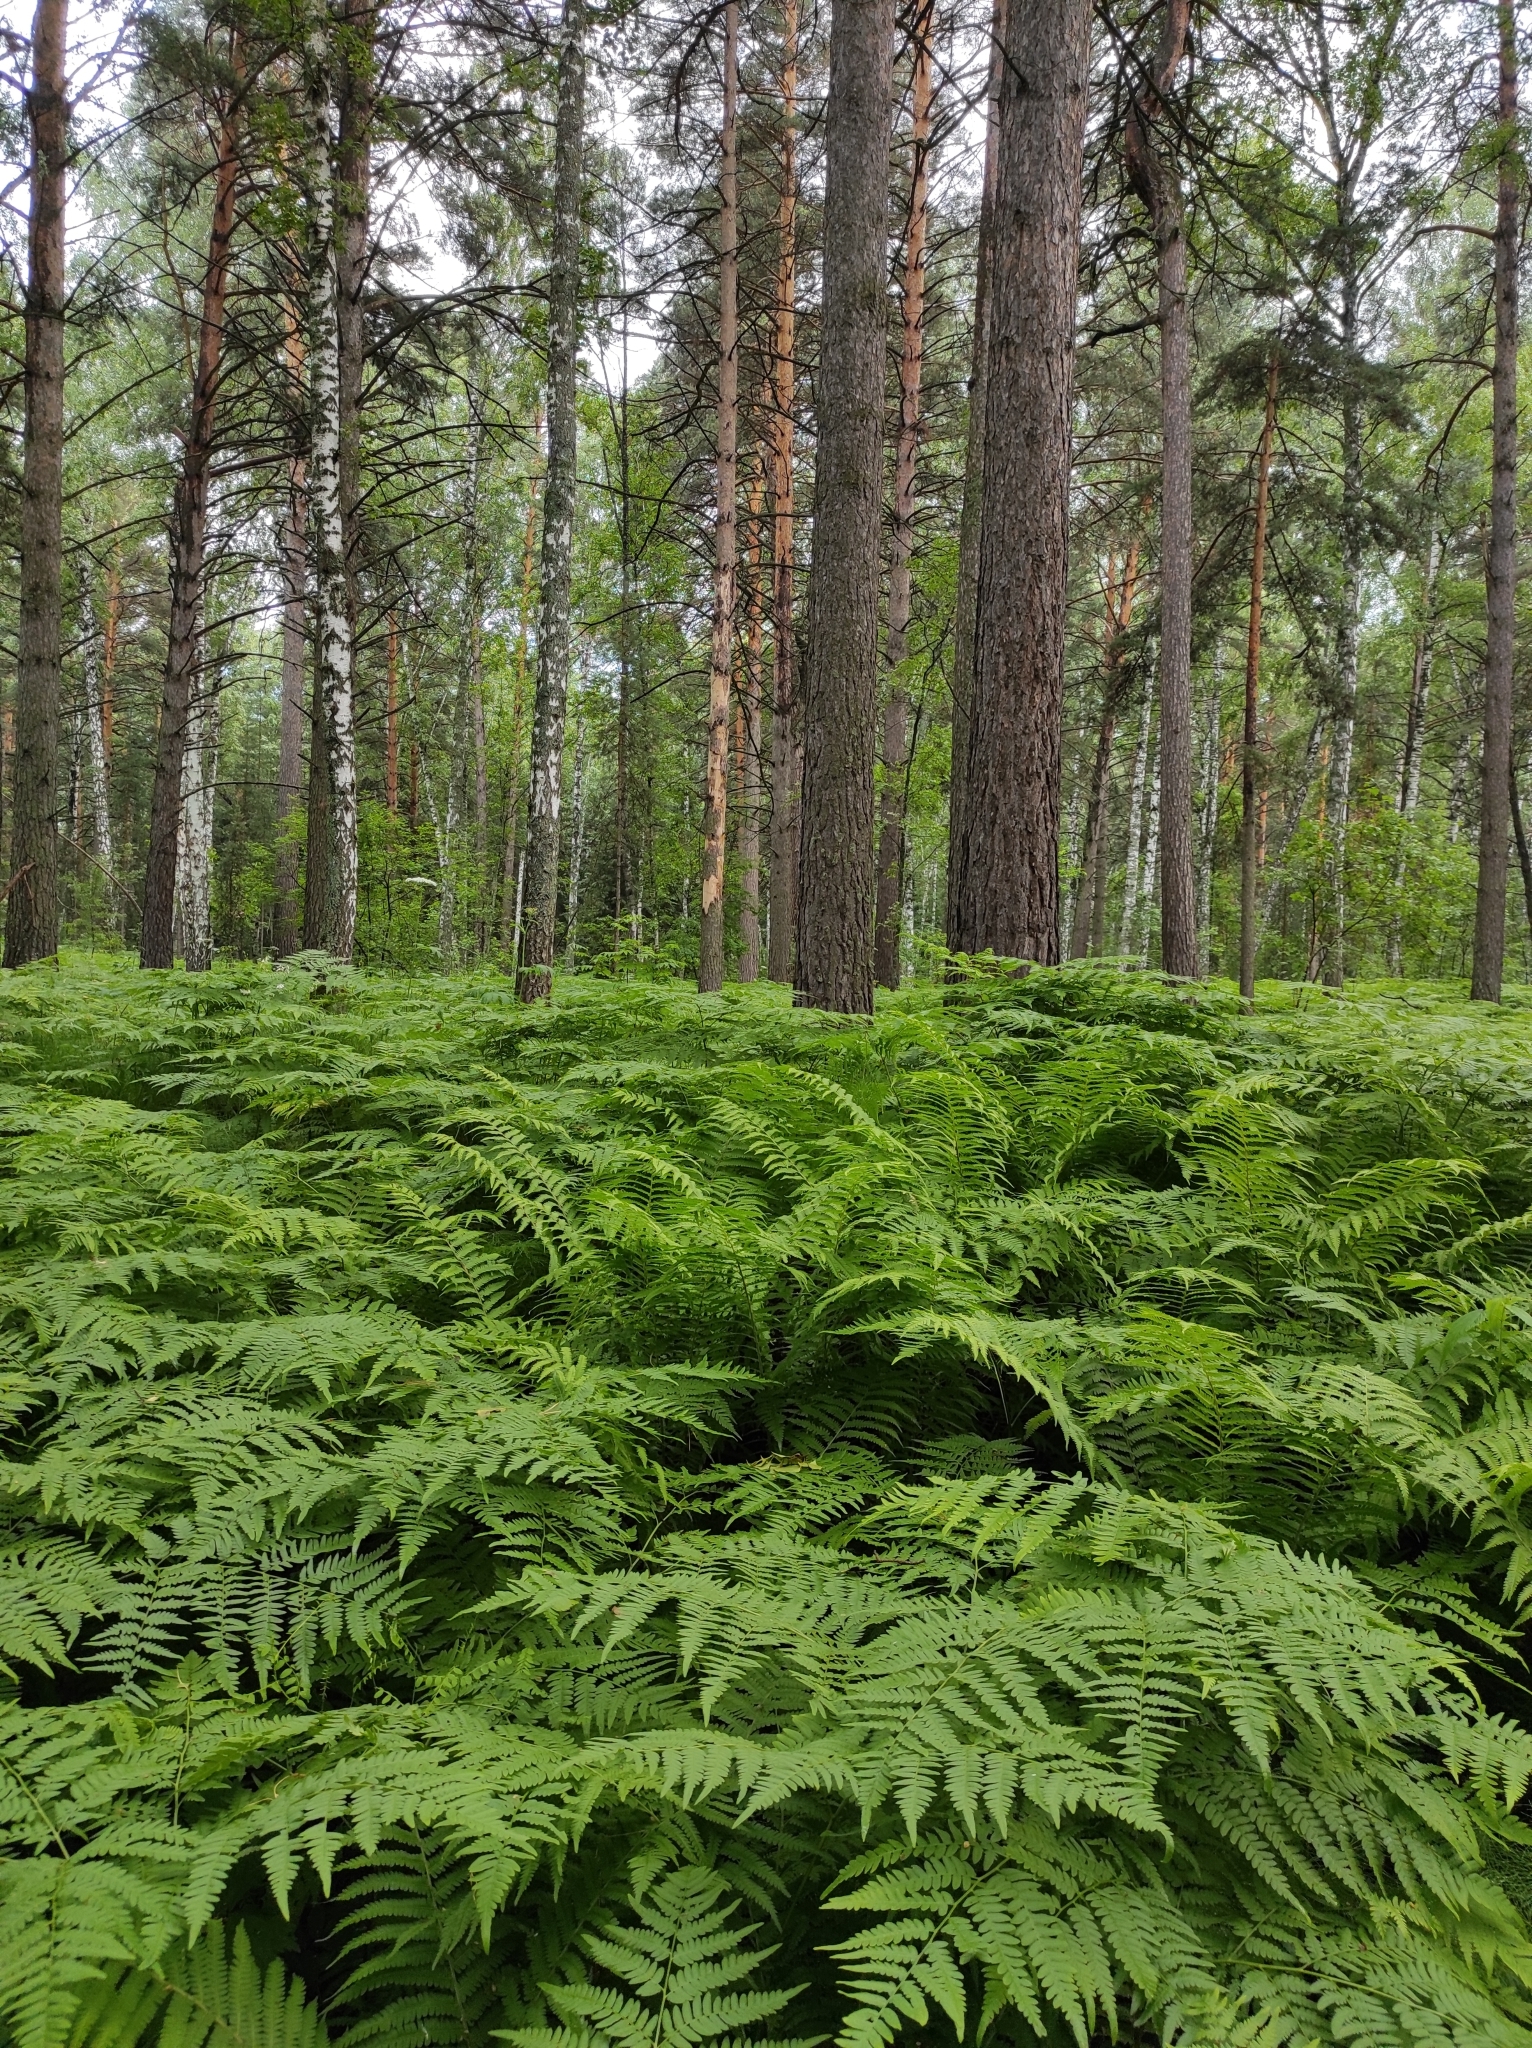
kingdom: Plantae
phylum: Tracheophyta
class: Pinopsida
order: Pinales
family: Pinaceae
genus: Pinus
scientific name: Pinus sylvestris
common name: Scots pine
